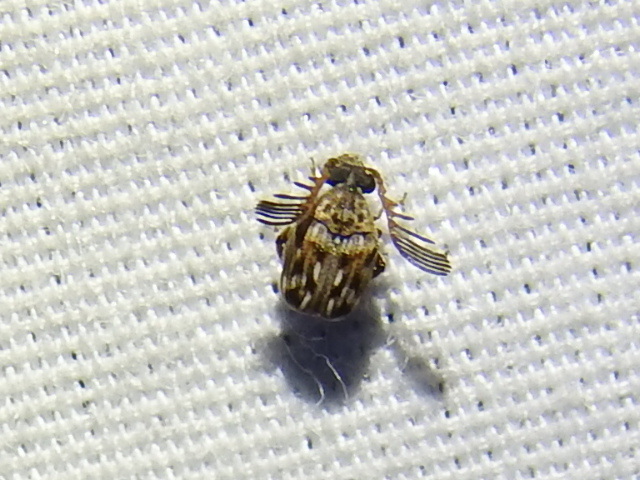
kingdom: Animalia
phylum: Arthropoda
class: Insecta
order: Coleoptera
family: Chrysomelidae
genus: Megacerus
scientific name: Megacerus cubiculus
